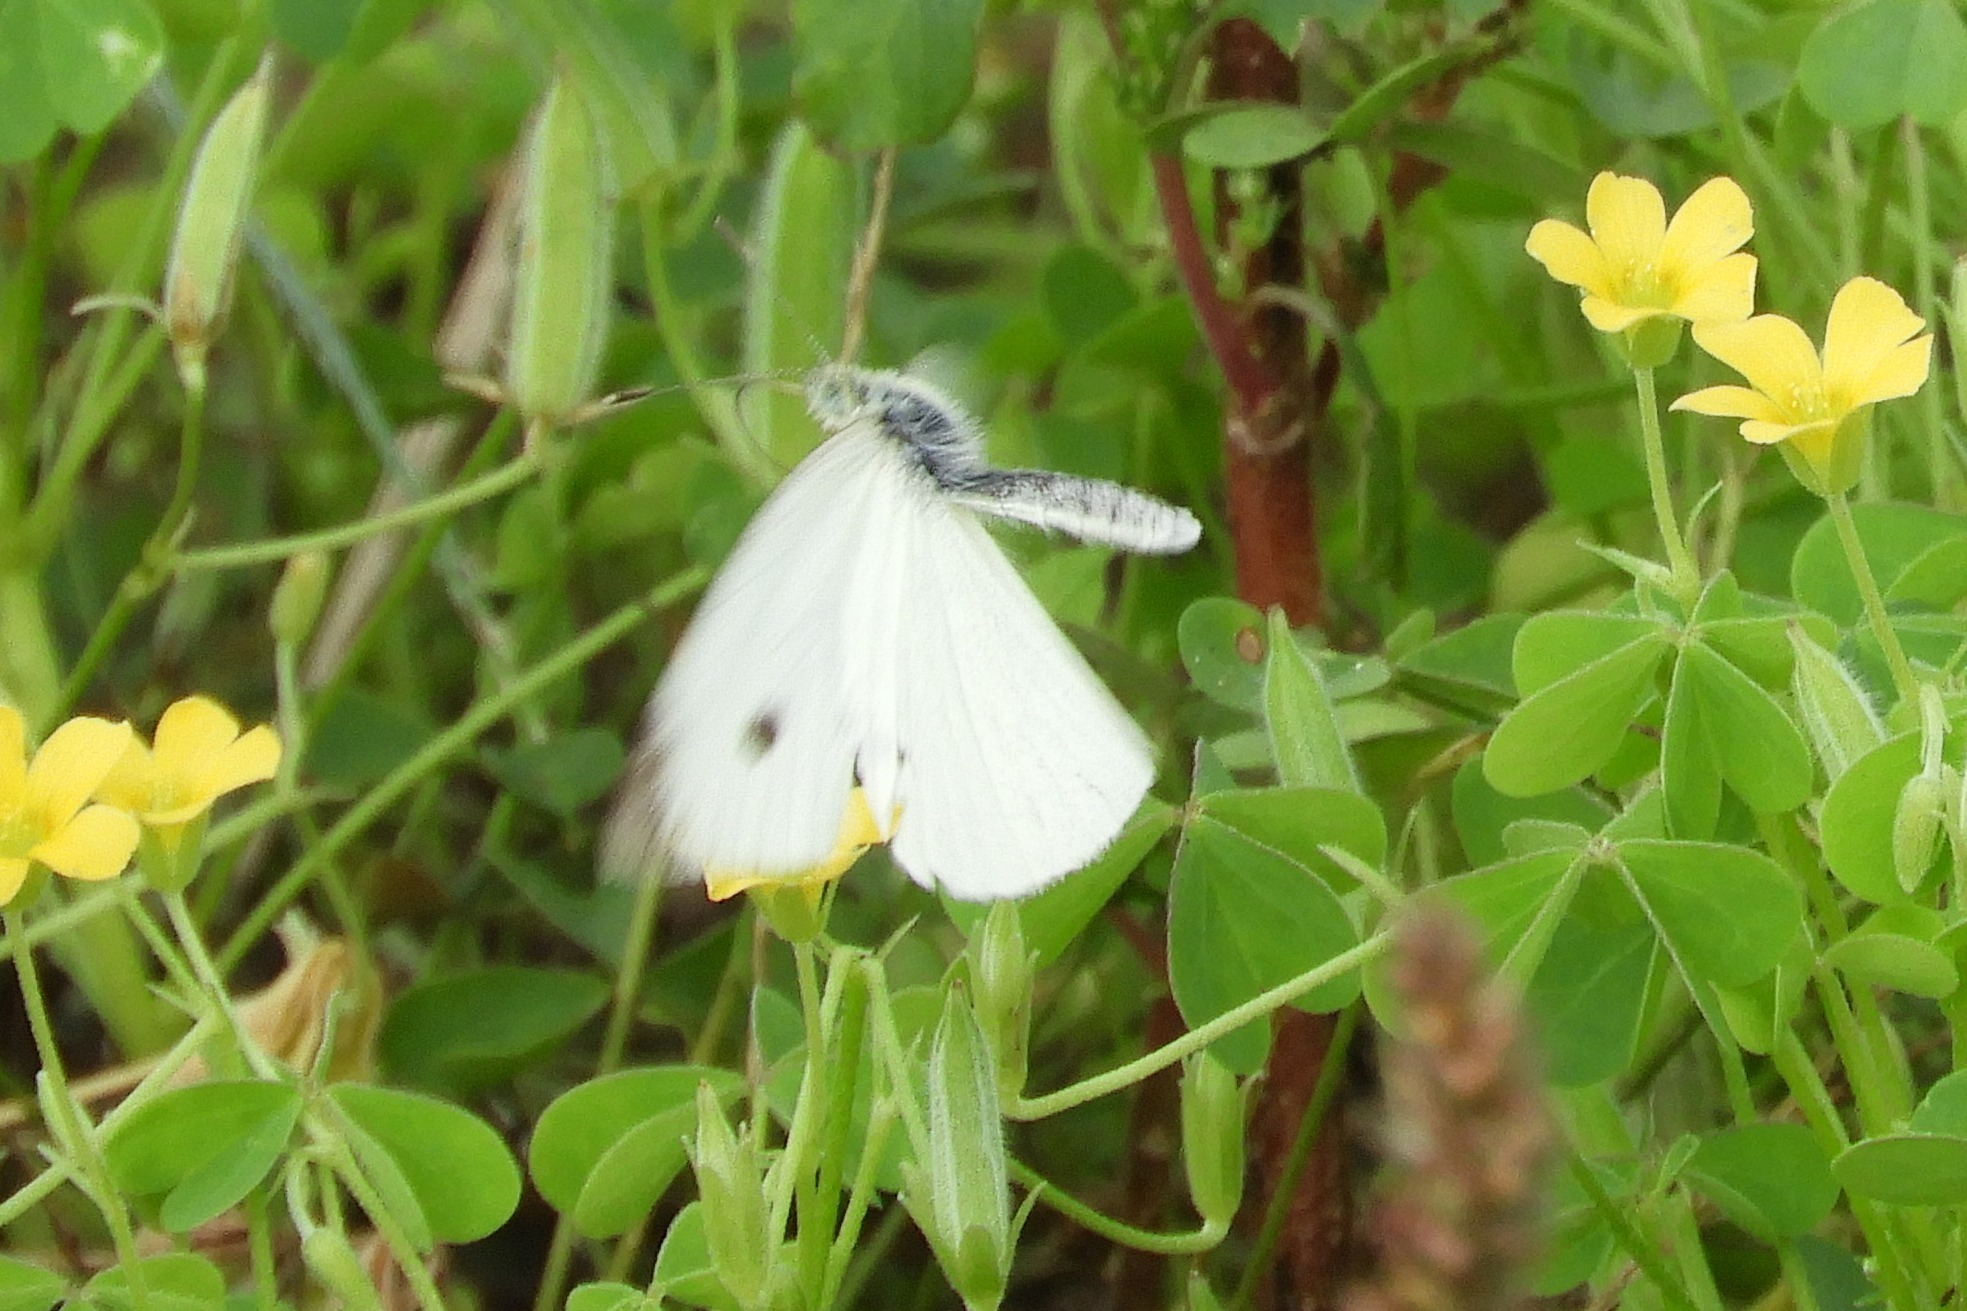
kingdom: Animalia
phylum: Arthropoda
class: Insecta
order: Lepidoptera
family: Pieridae
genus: Pieris
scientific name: Pieris rapae
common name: Small white
